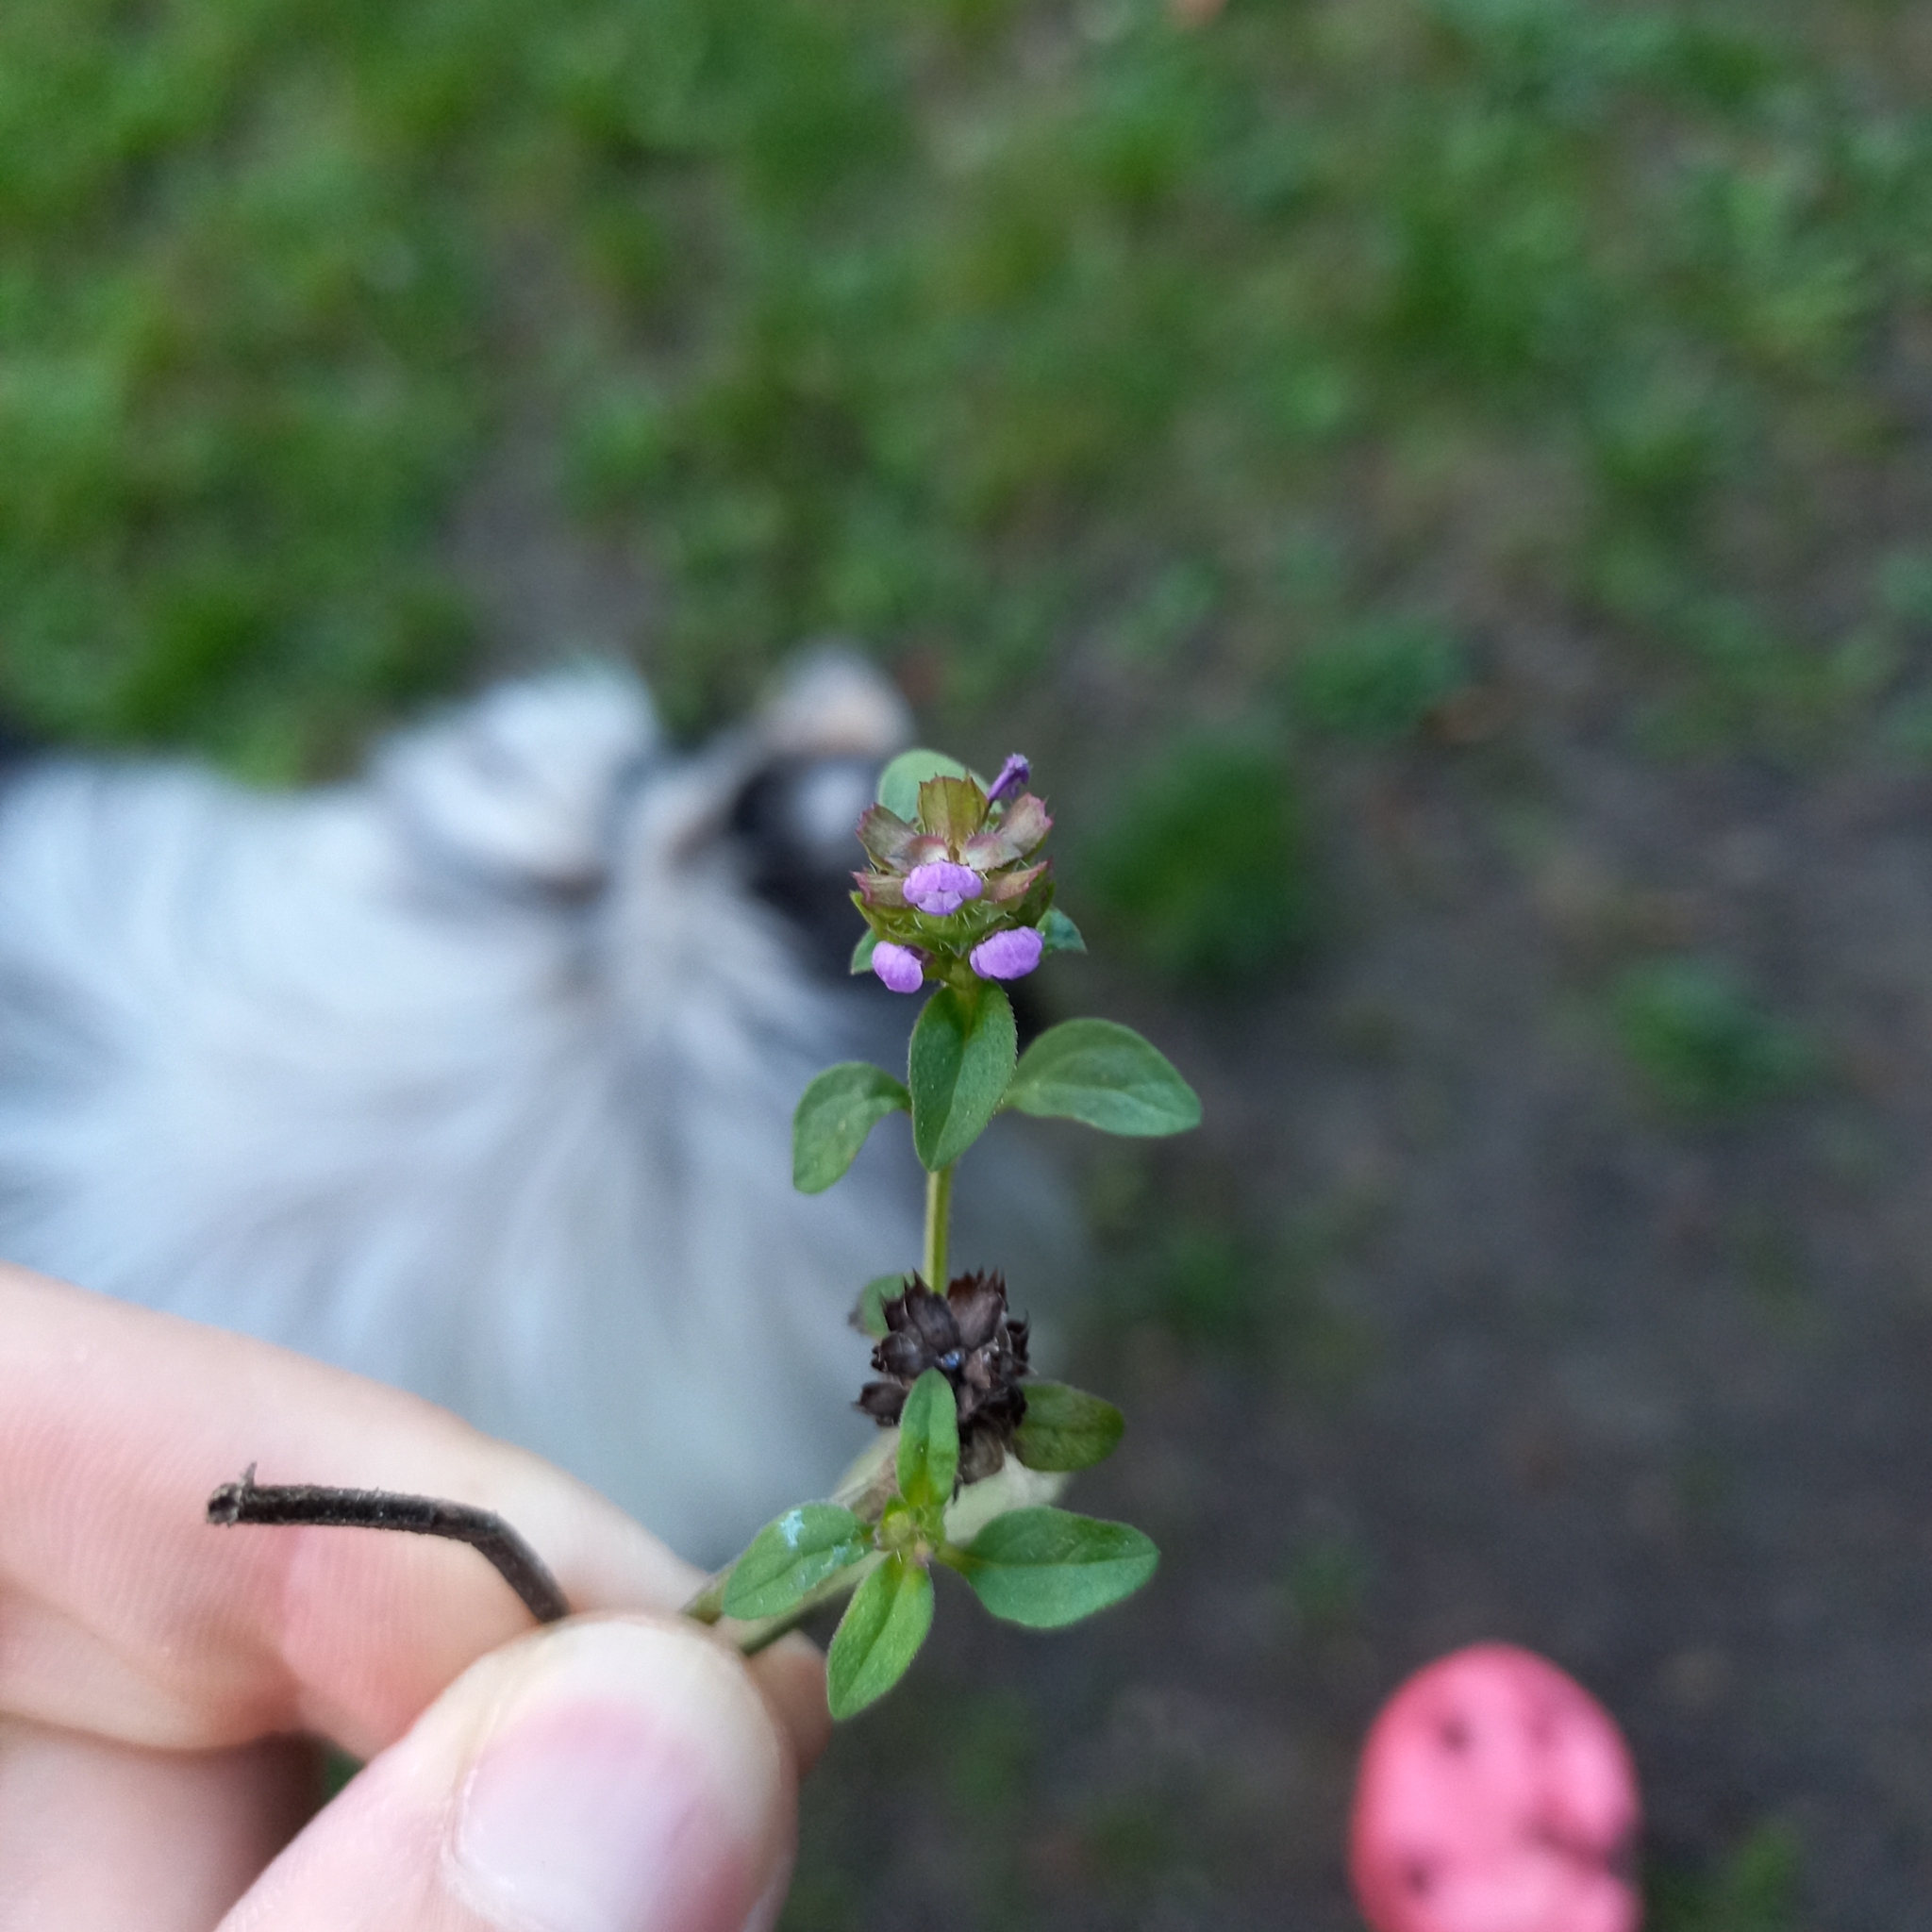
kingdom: Plantae
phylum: Tracheophyta
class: Magnoliopsida
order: Lamiales
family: Lamiaceae
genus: Prunella
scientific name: Prunella vulgaris
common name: Heal-all
